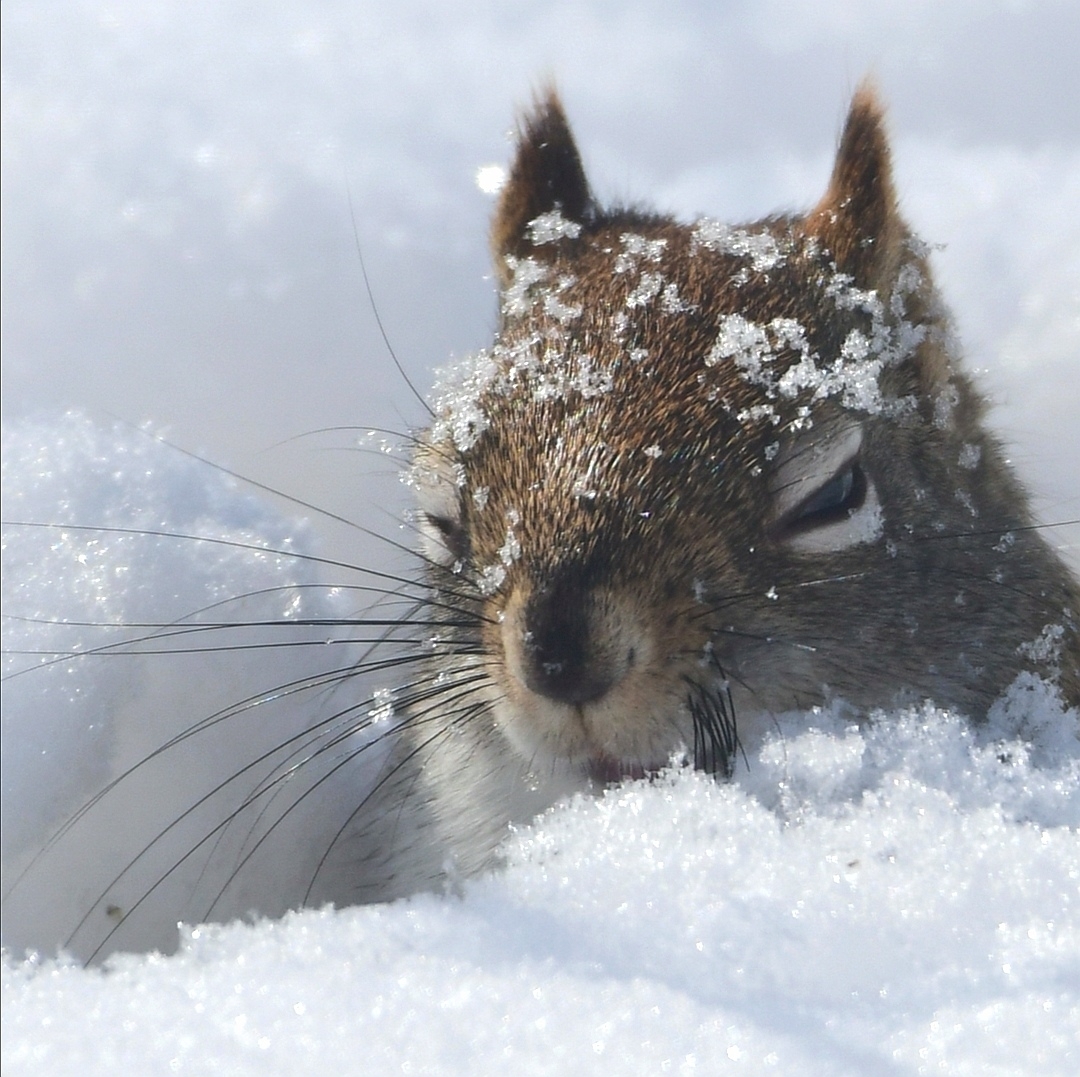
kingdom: Animalia
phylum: Chordata
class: Mammalia
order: Rodentia
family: Sciuridae
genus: Tamiasciurus
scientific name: Tamiasciurus hudsonicus
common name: Red squirrel
